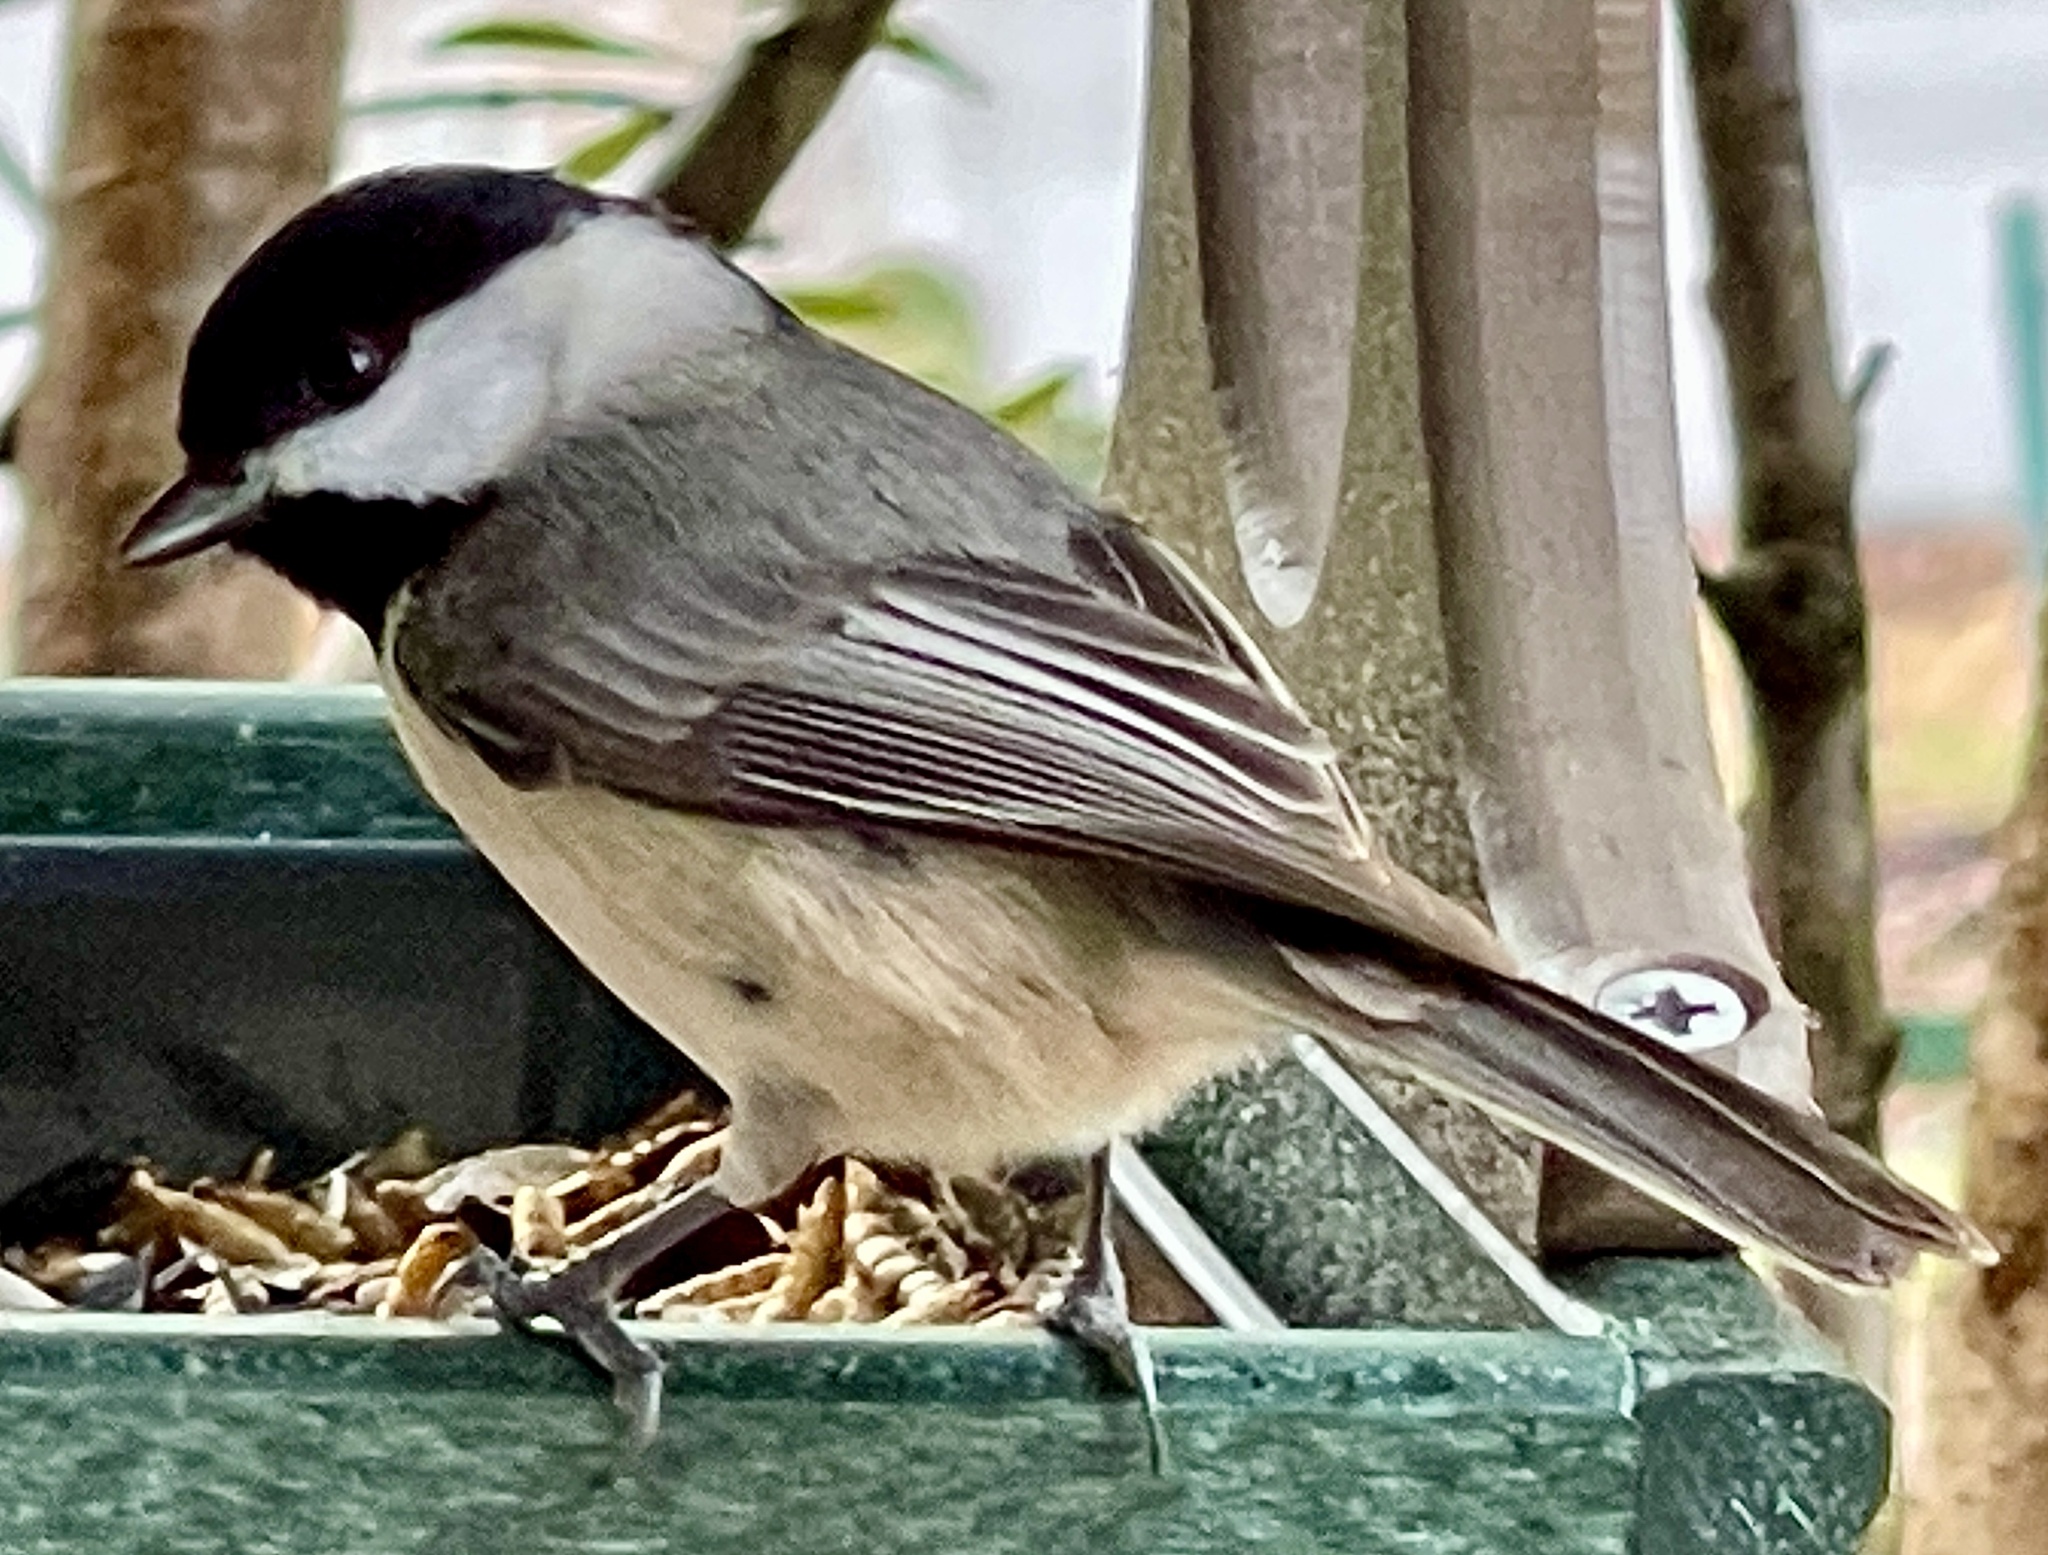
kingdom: Animalia
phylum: Chordata
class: Aves
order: Passeriformes
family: Paridae
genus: Poecile
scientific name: Poecile carolinensis
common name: Carolina chickadee
